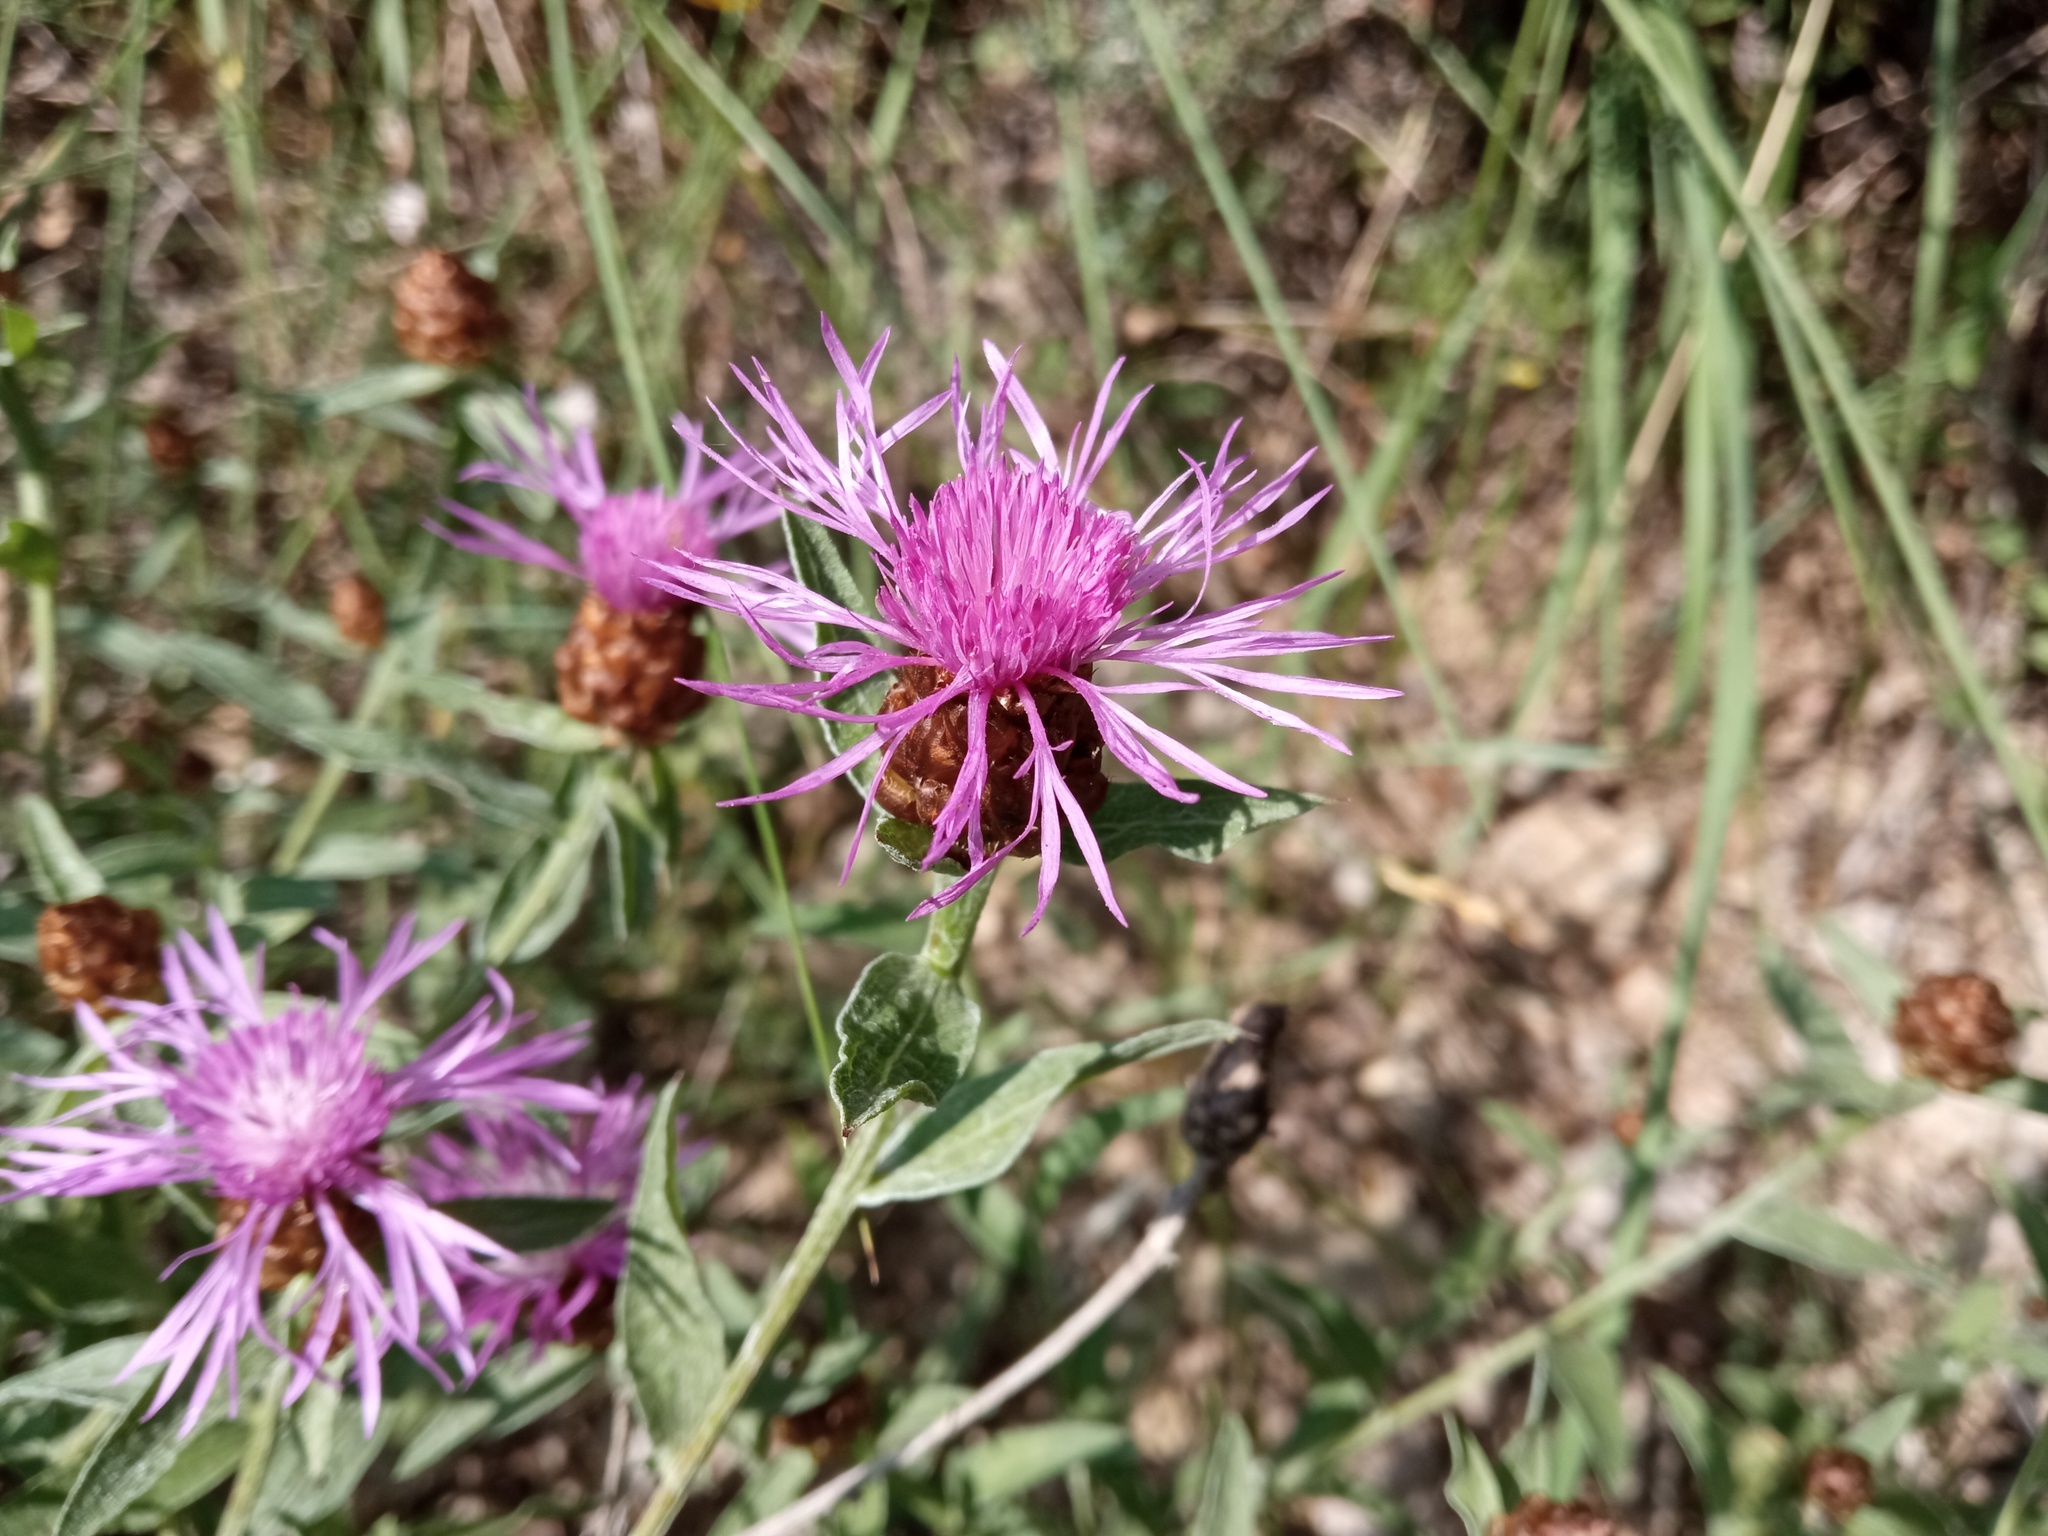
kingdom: Plantae
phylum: Tracheophyta
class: Magnoliopsida
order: Asterales
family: Asteraceae
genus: Centaurea
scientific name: Centaurea jacea
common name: Brown knapweed
